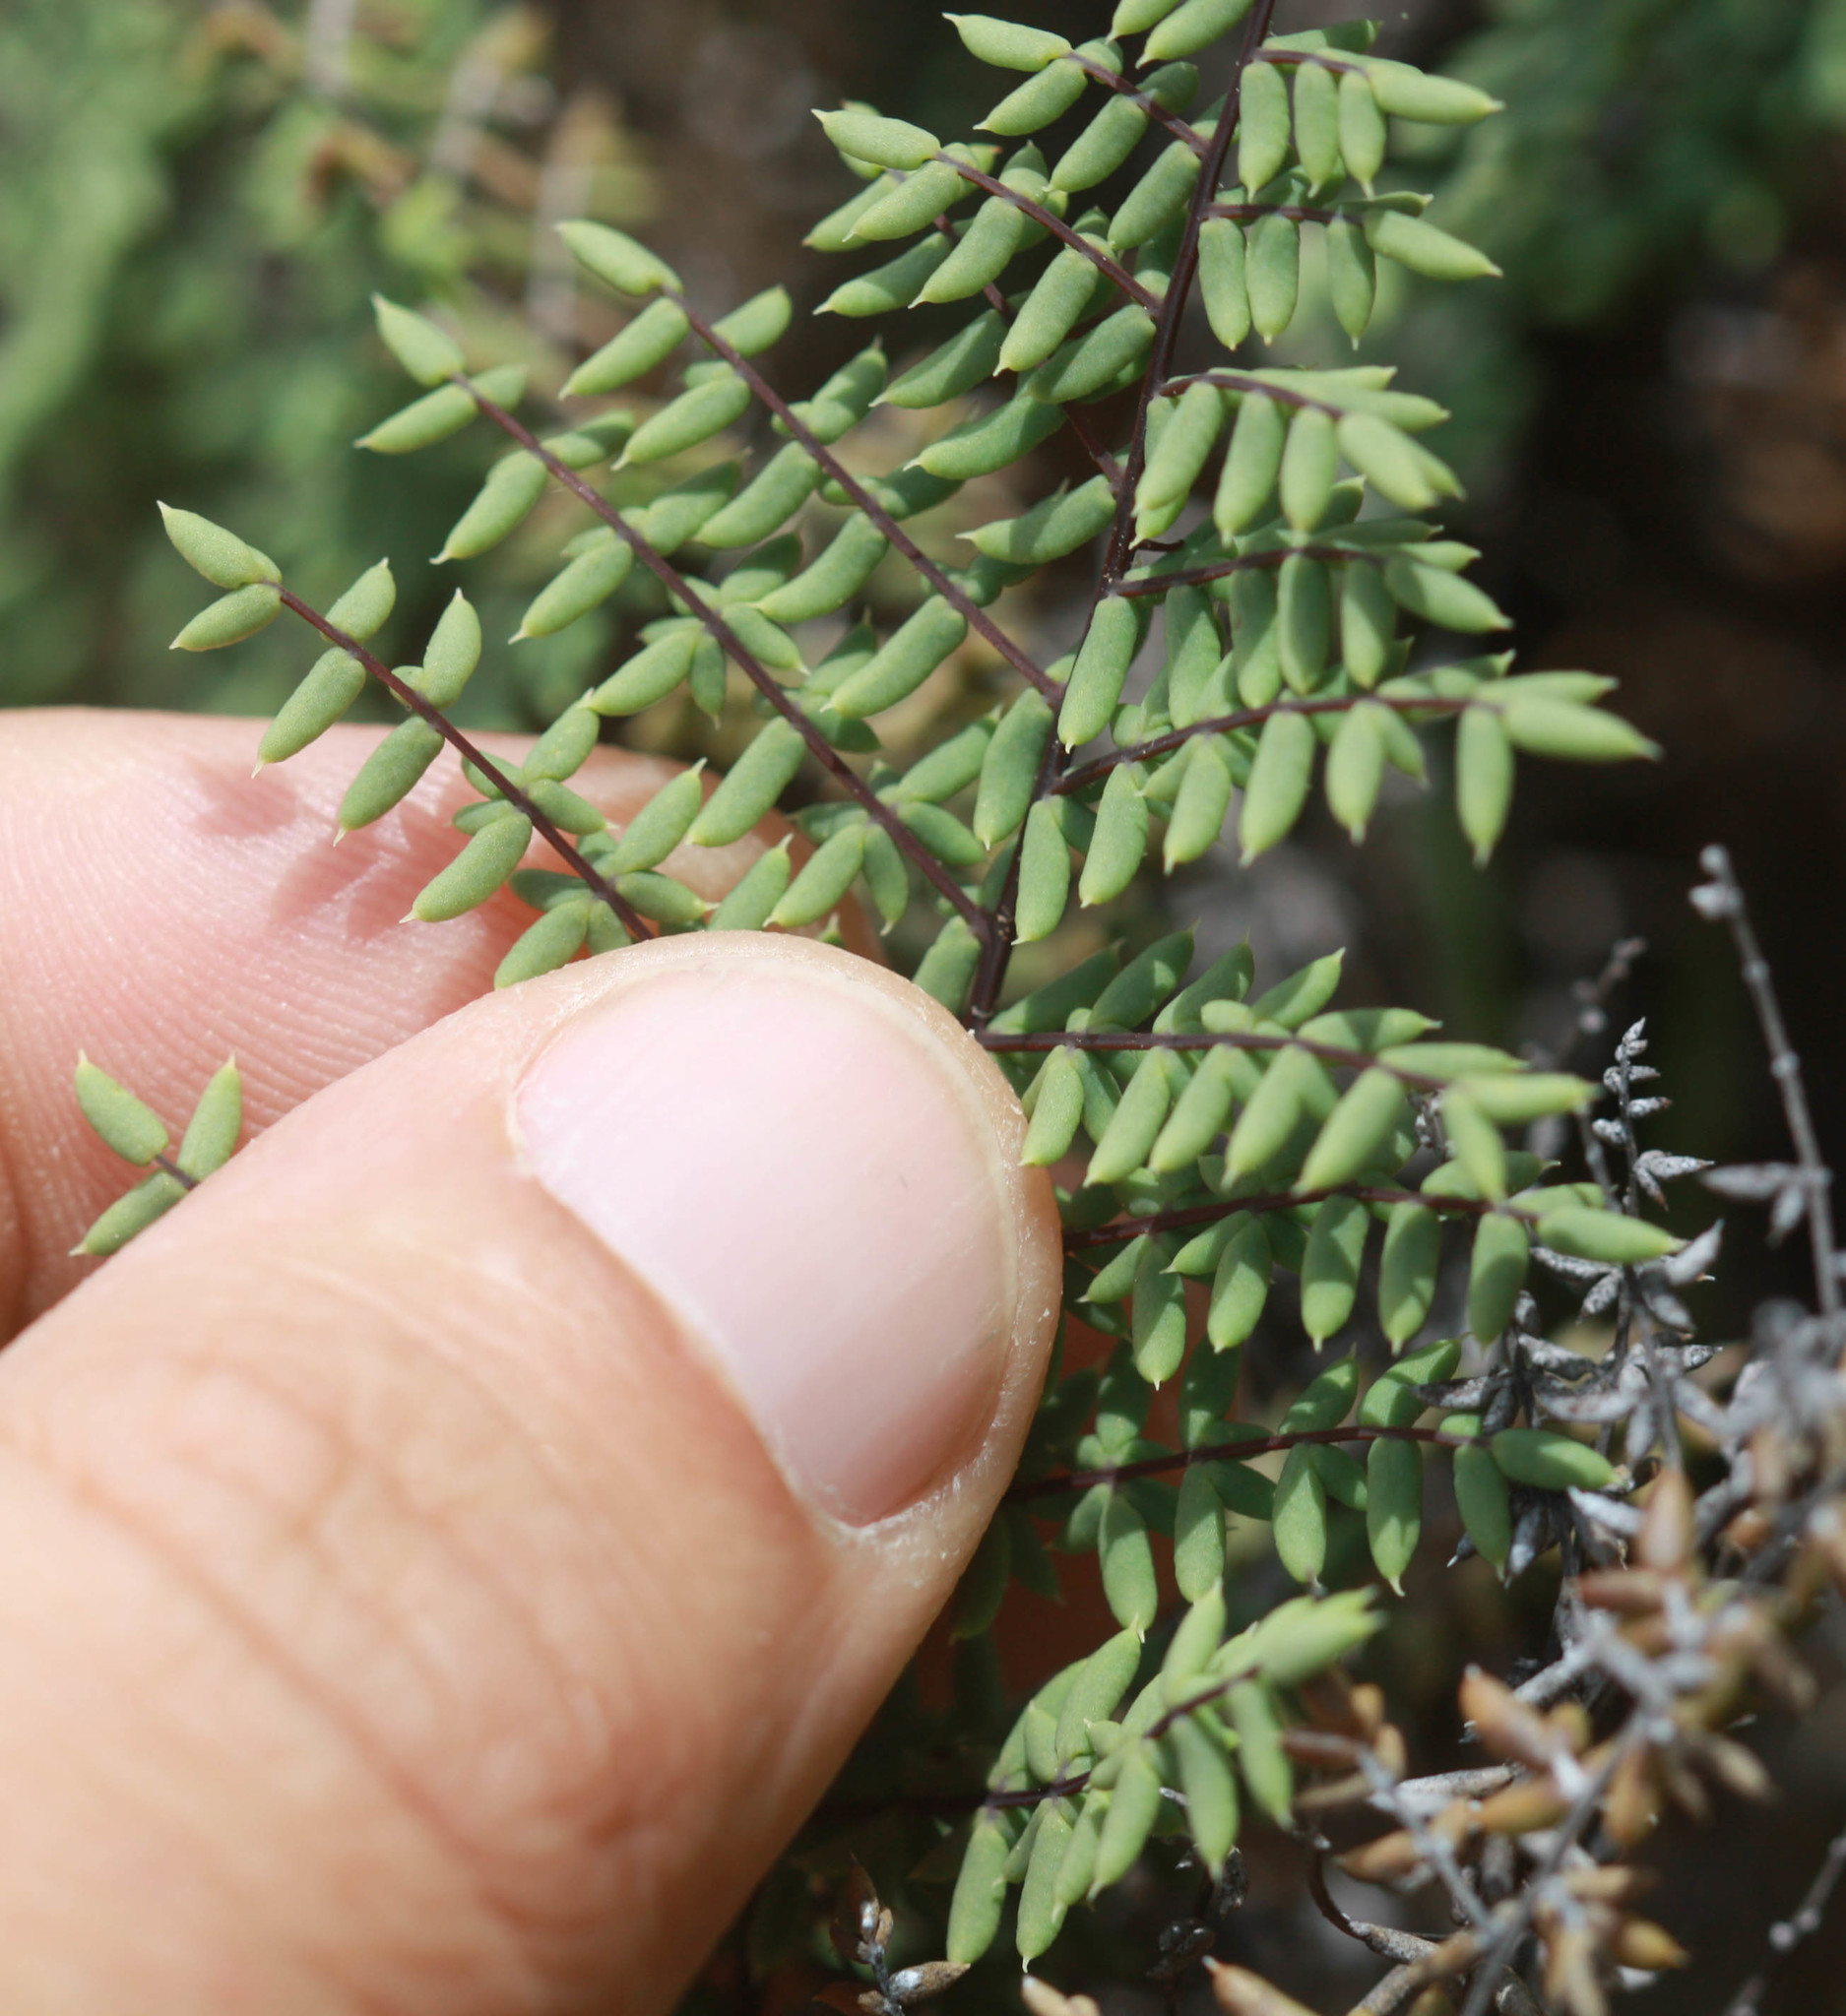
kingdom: Plantae
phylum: Tracheophyta
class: Polypodiopsida
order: Polypodiales
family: Pteridaceae
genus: Pellaea
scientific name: Pellaea mucronata
